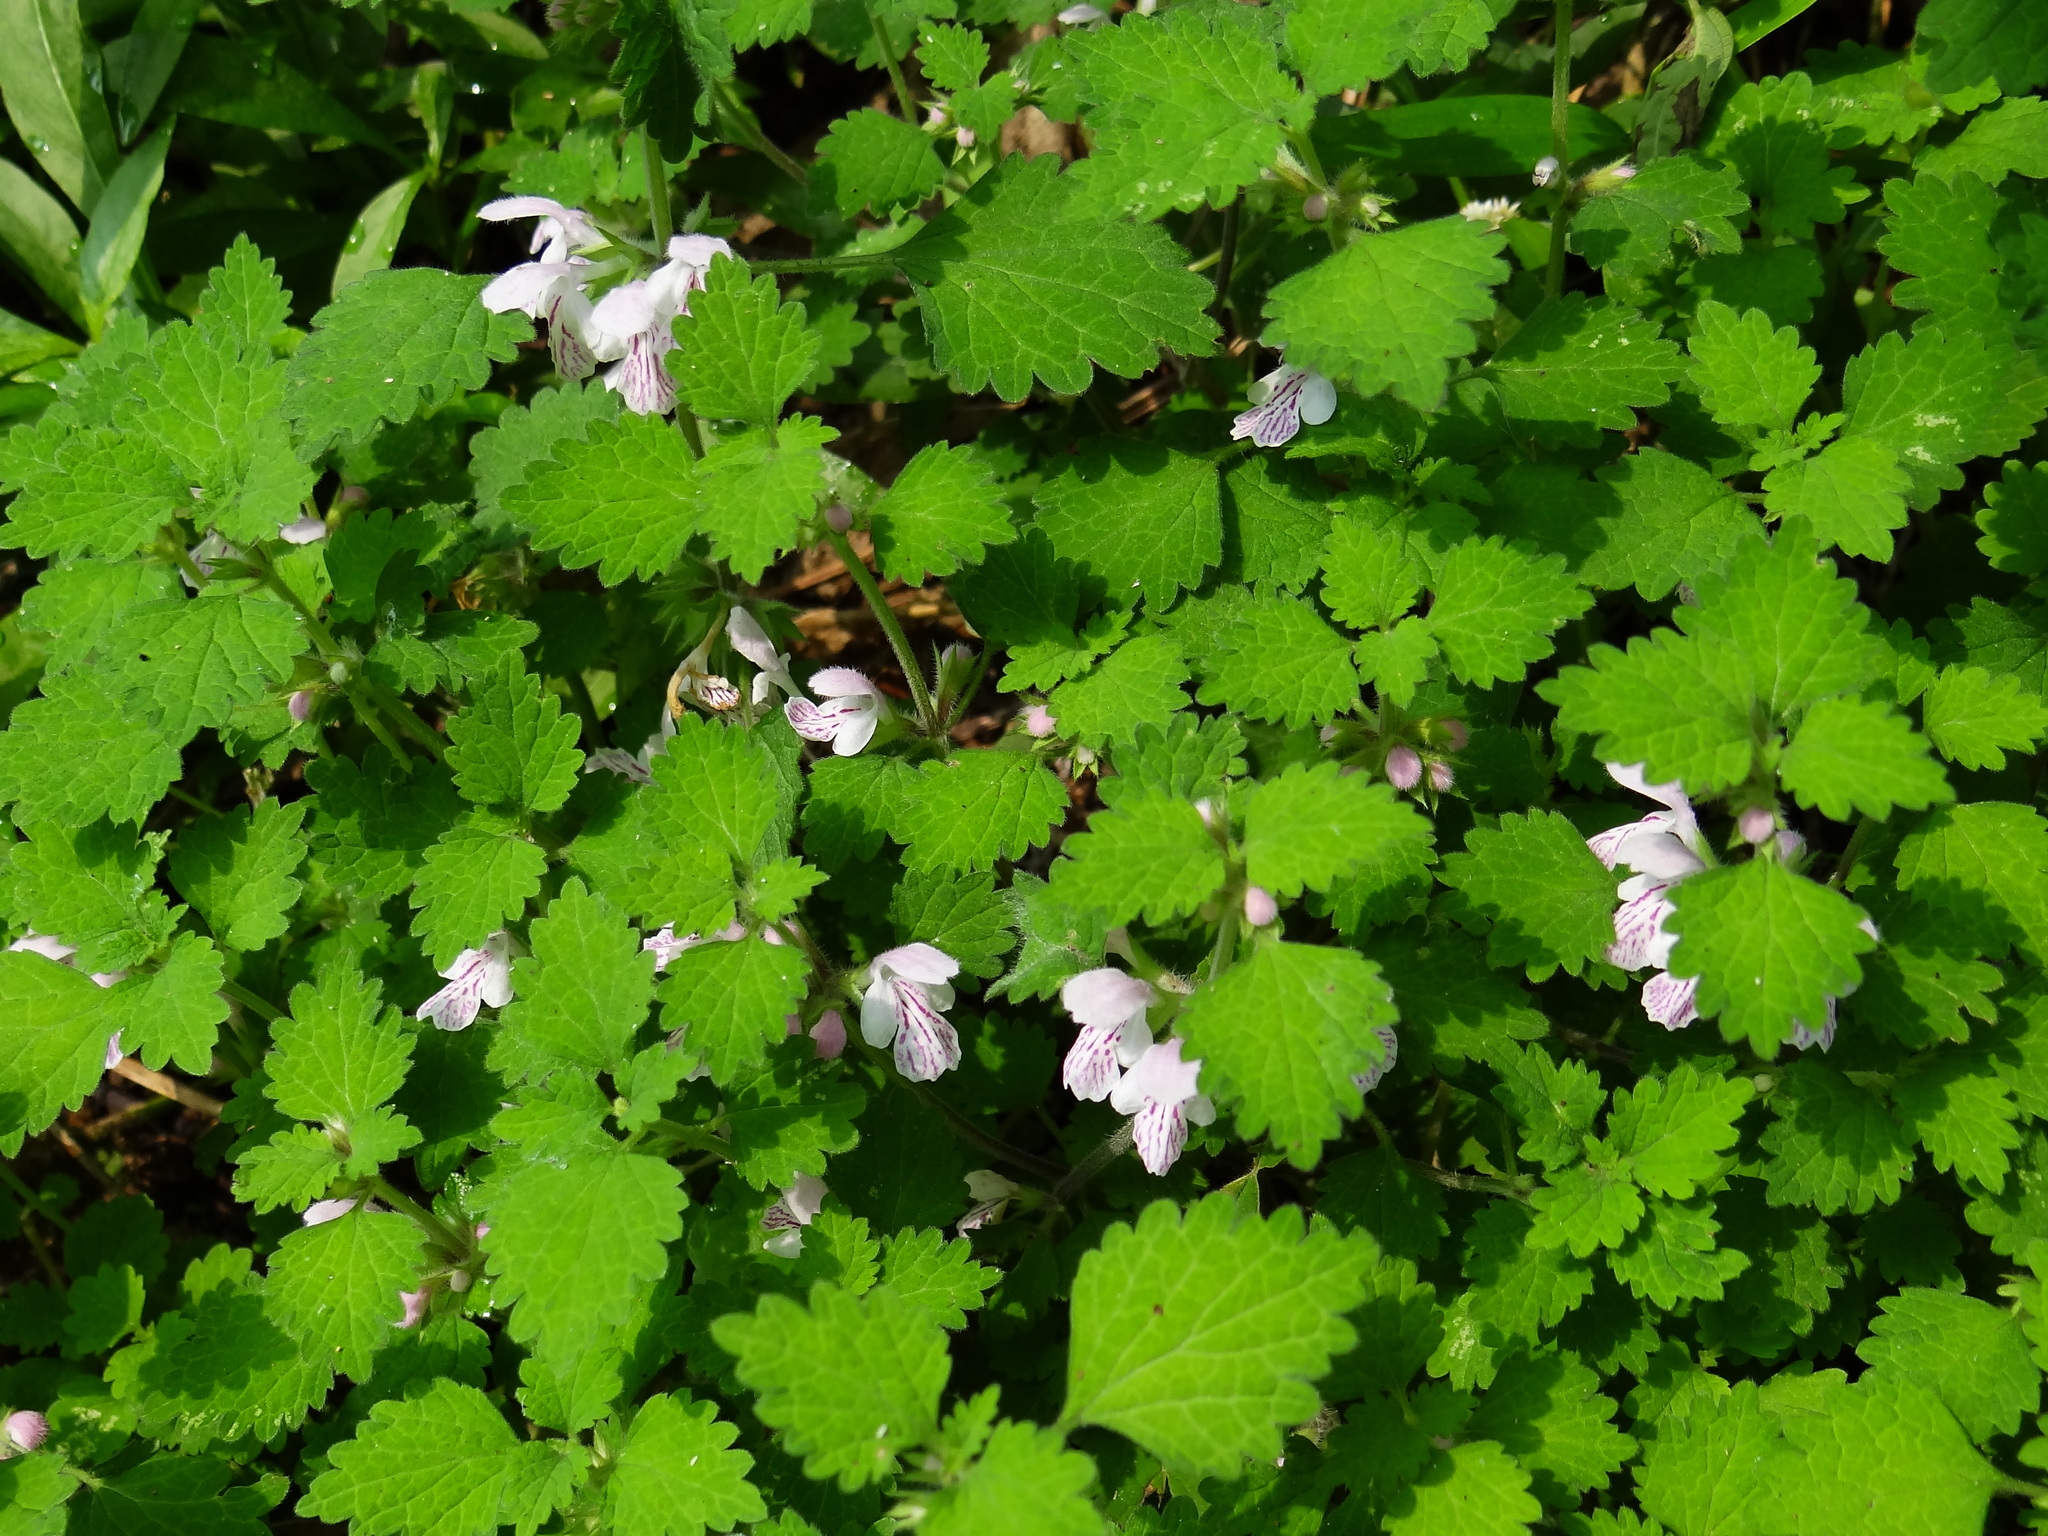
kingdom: Plantae
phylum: Tracheophyta
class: Magnoliopsida
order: Lamiales
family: Lamiaceae
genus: Matsumurella
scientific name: Matsumurella tuberifera
